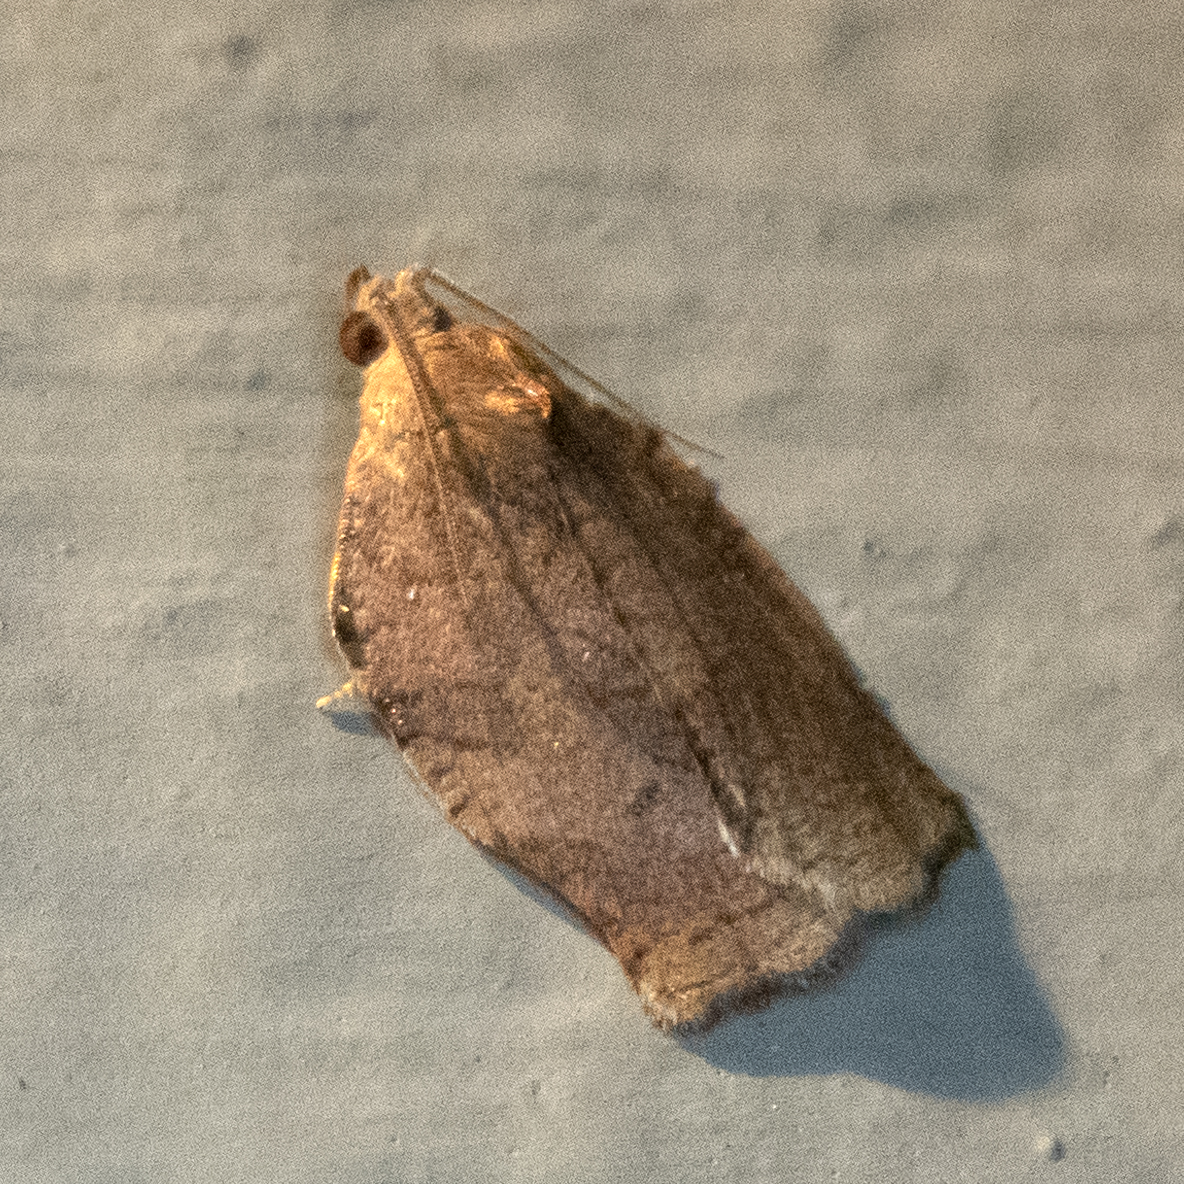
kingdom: Animalia
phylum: Arthropoda
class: Insecta
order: Lepidoptera
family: Tortricidae
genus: Archips
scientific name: Archips purpurana
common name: Omnivorous leafroller
